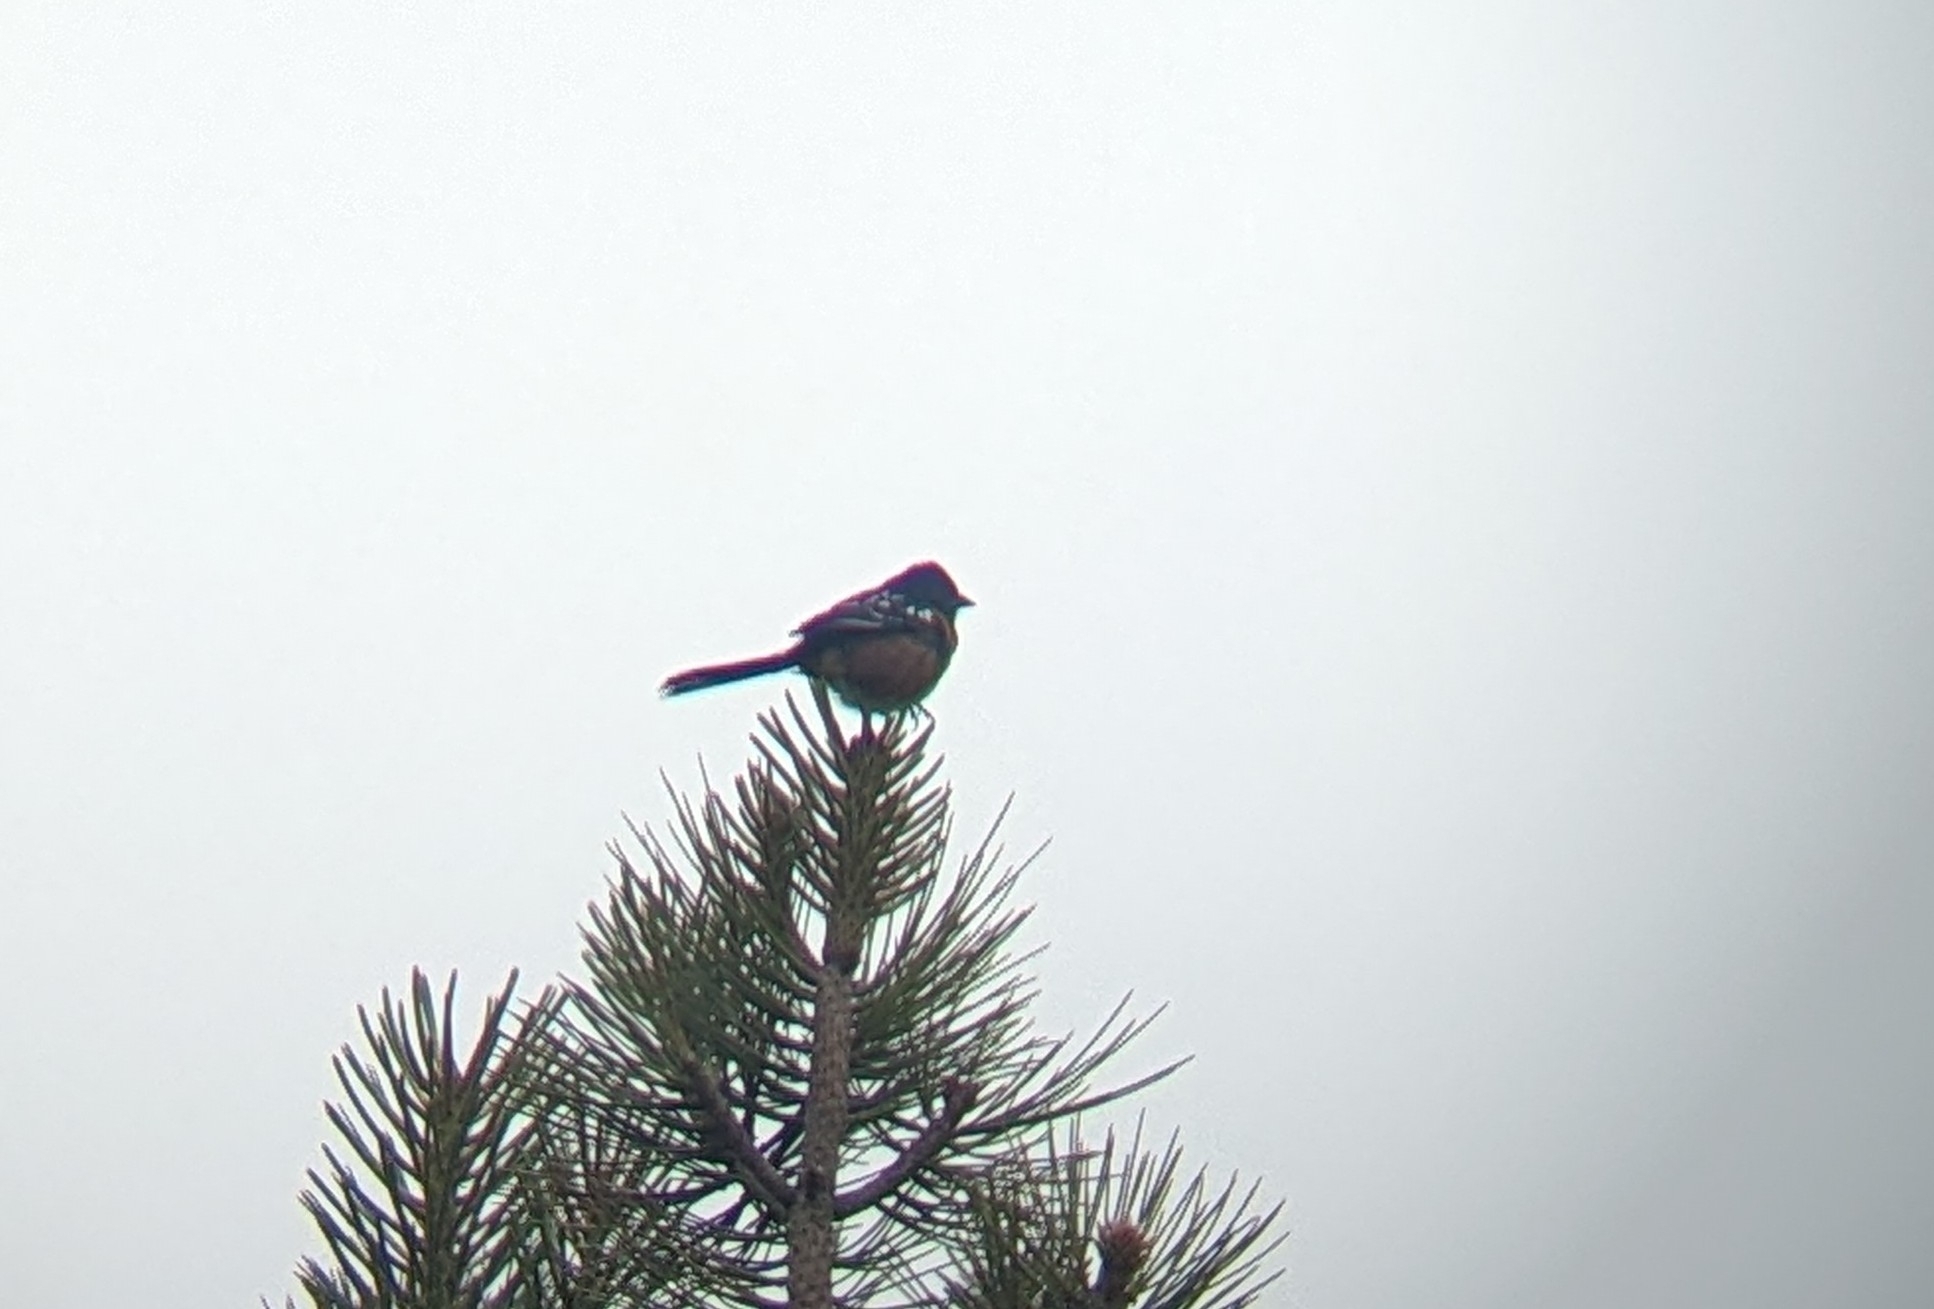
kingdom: Animalia
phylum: Chordata
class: Aves
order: Passeriformes
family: Passerellidae
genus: Pipilo
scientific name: Pipilo maculatus
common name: Spotted towhee
